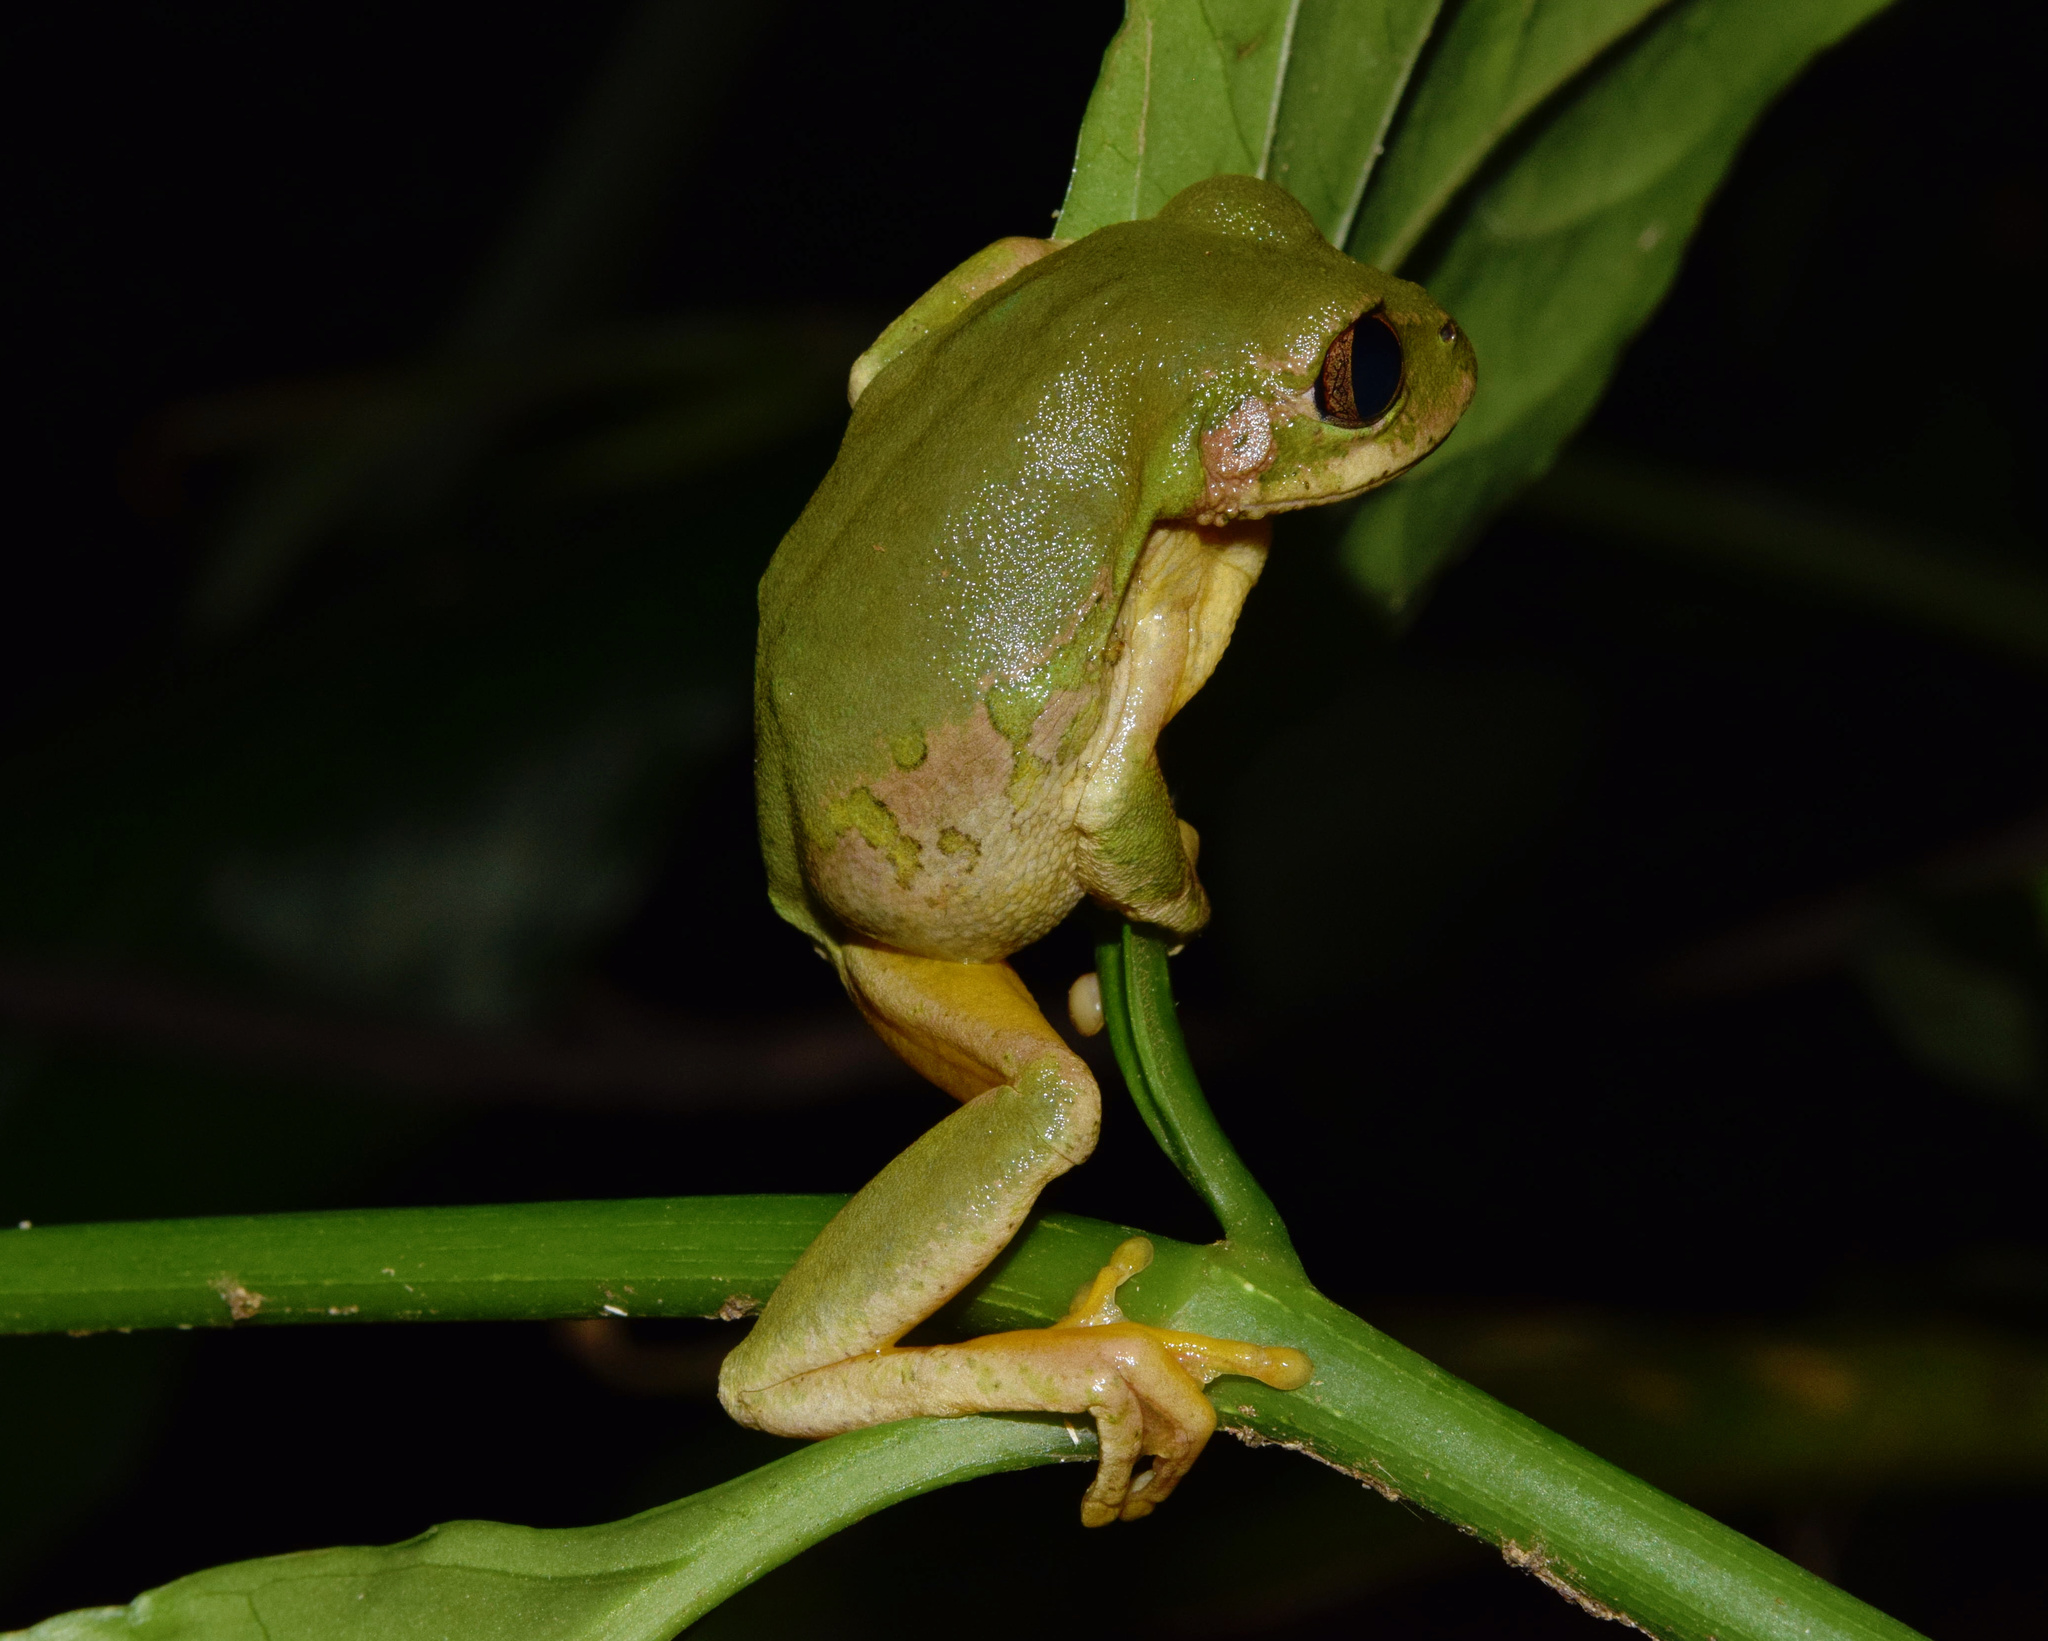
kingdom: Animalia
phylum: Chordata
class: Amphibia
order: Anura
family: Arthroleptidae
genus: Leptopelis
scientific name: Leptopelis natalensis
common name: Natal tree frog
